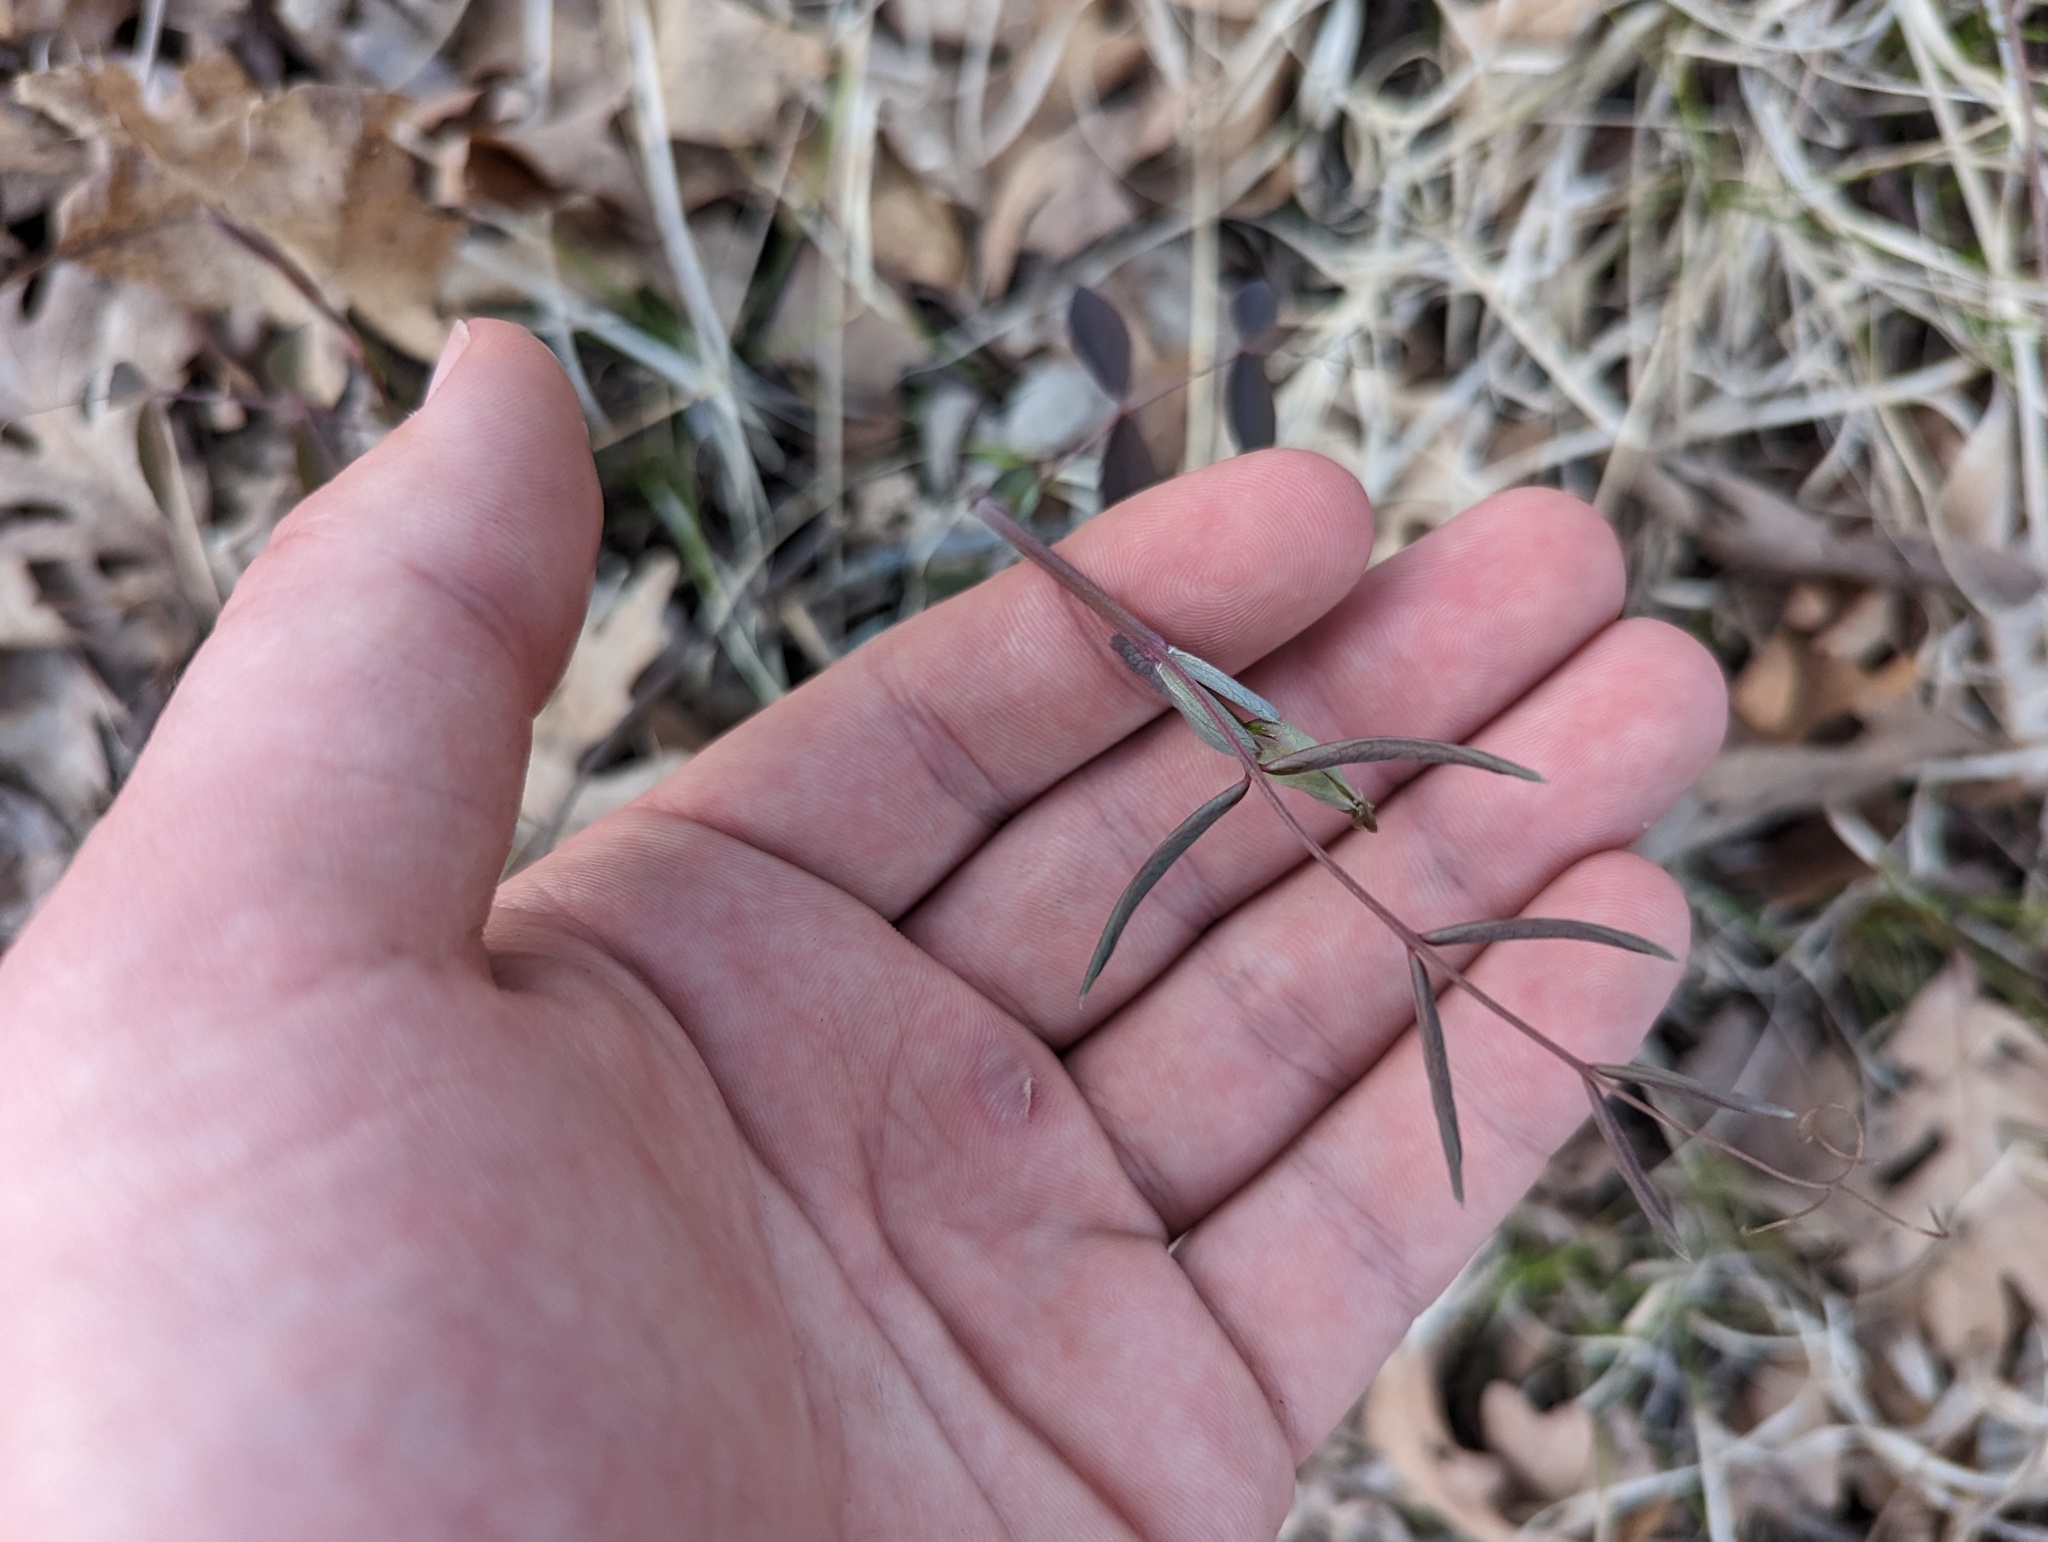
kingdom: Plantae
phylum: Tracheophyta
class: Magnoliopsida
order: Fabales
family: Fabaceae
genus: Lathyrus
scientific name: Lathyrus ochroleucus
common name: Pale vetchling
